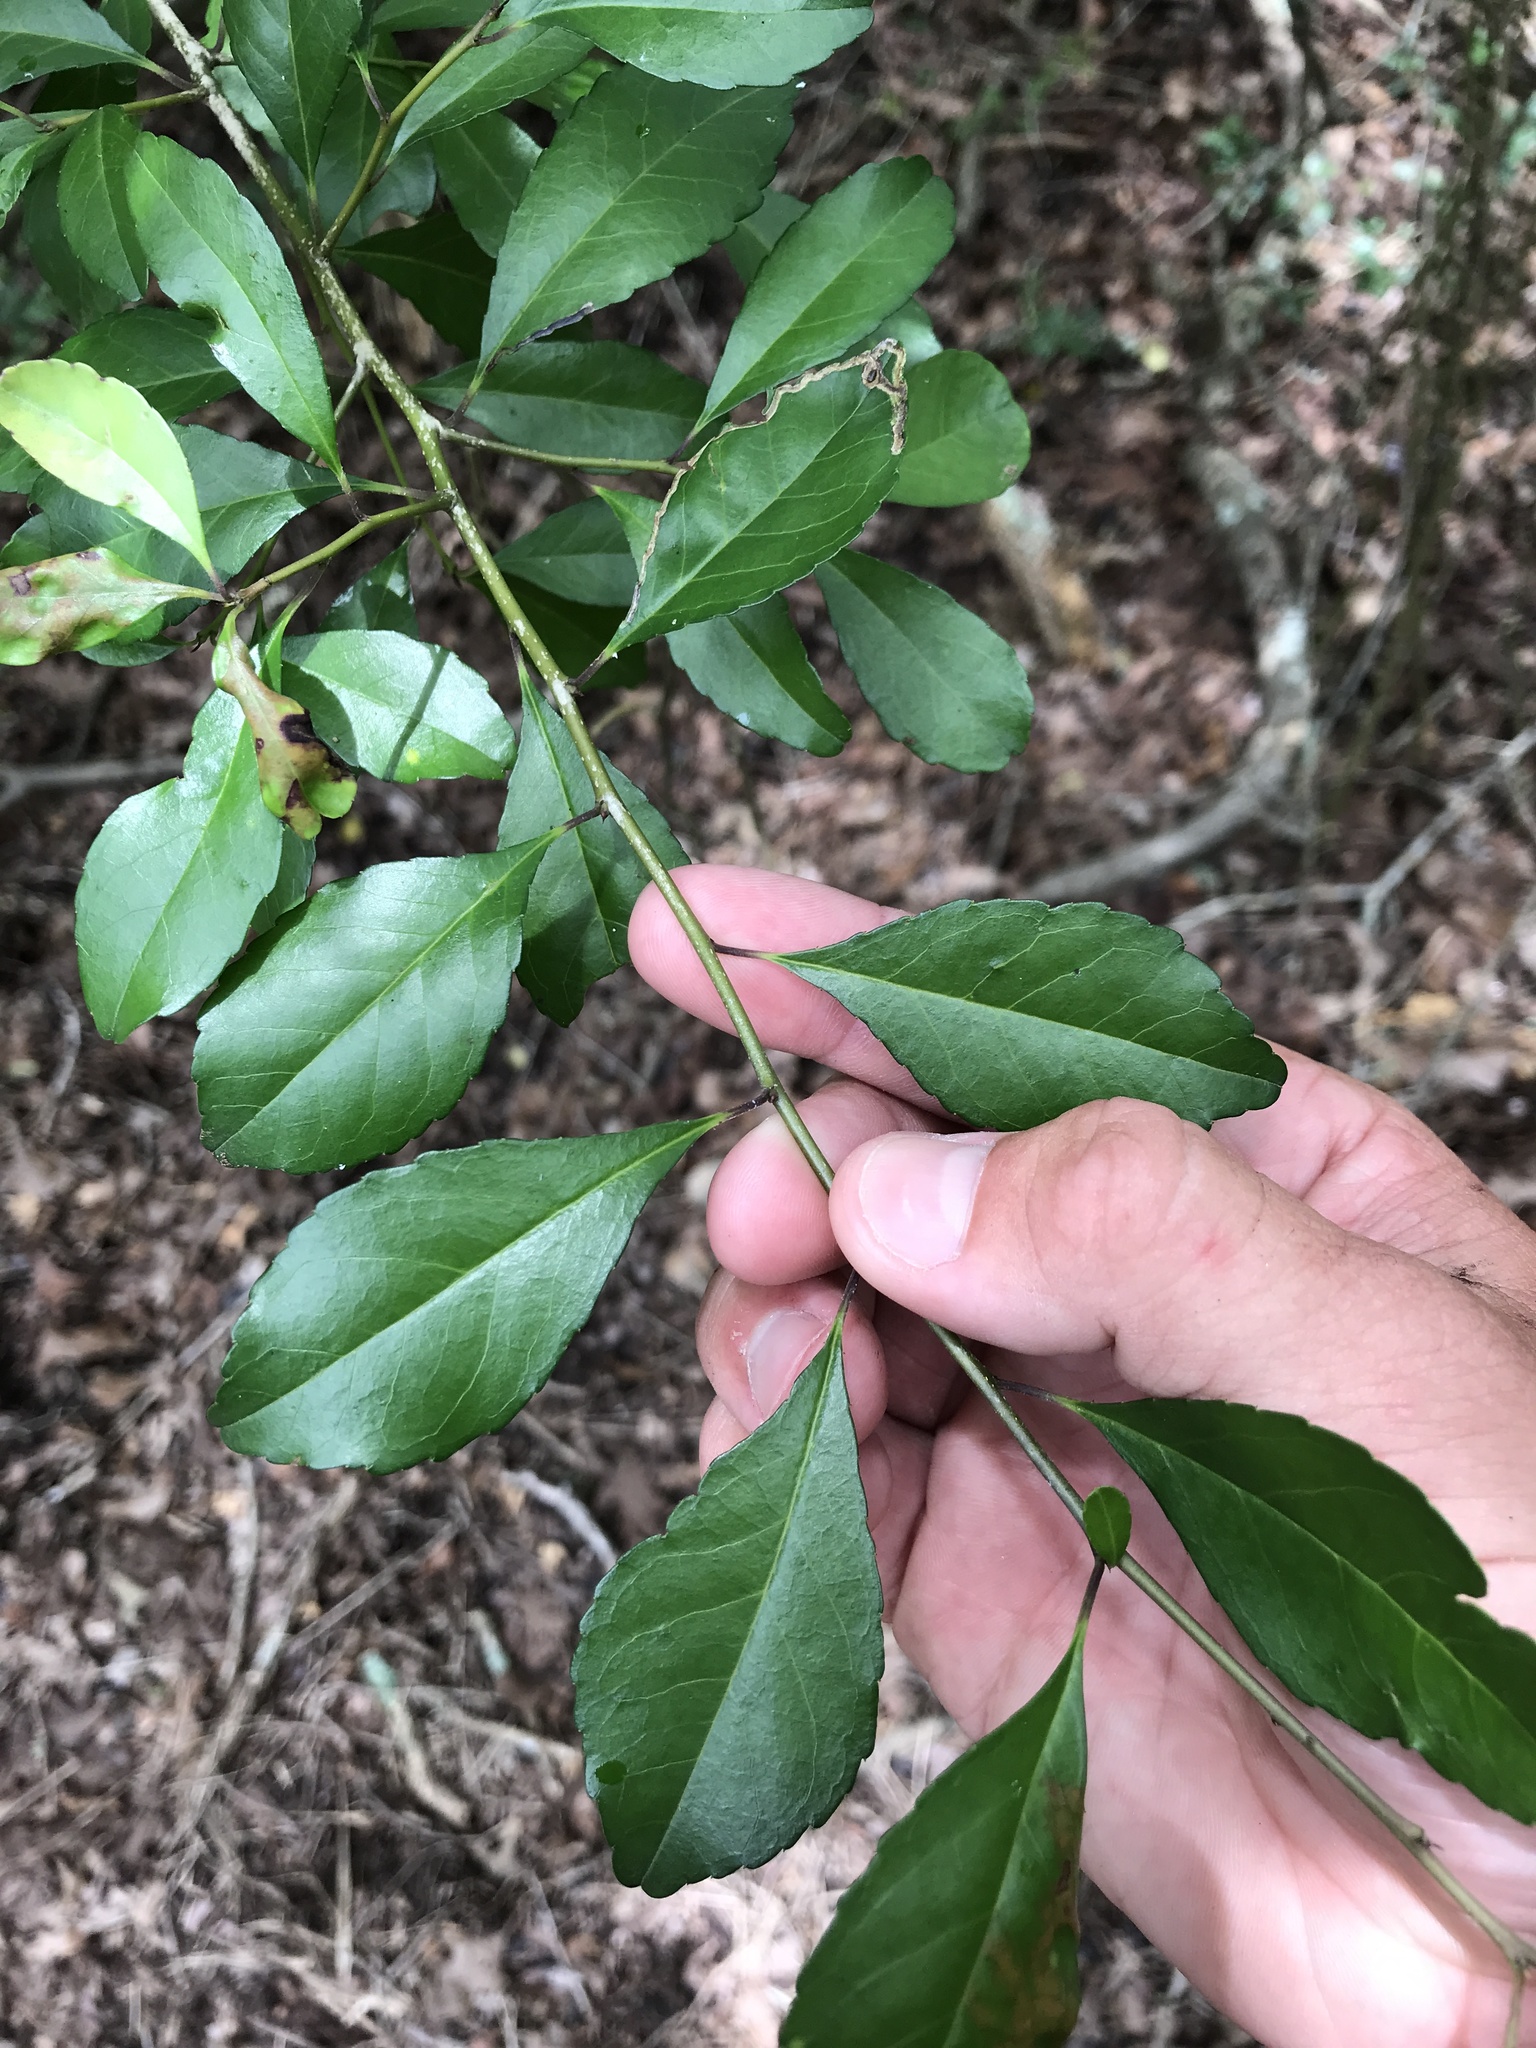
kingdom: Plantae
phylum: Tracheophyta
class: Magnoliopsida
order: Aquifoliales
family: Aquifoliaceae
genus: Ilex
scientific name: Ilex decidua
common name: Possum-haw
